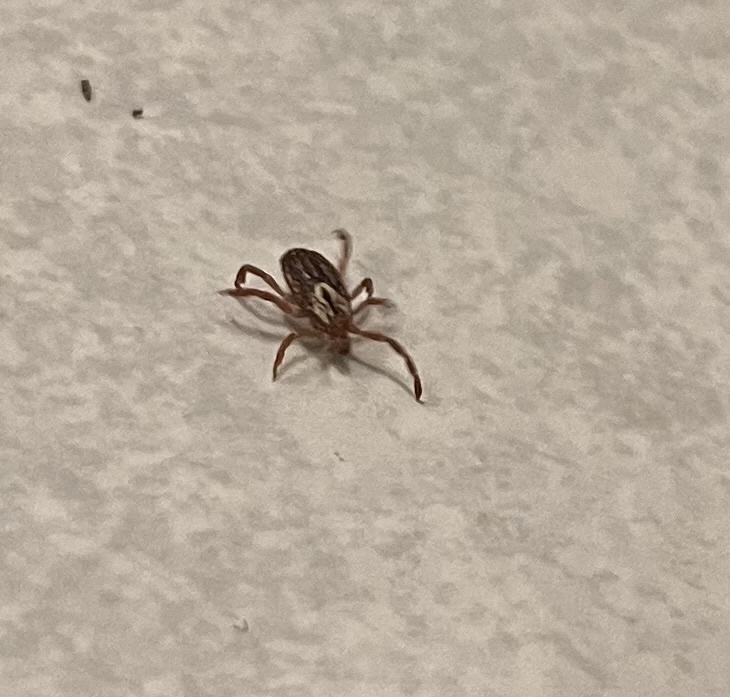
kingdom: Animalia
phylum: Arthropoda
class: Arachnida
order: Ixodida
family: Ixodidae
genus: Amblyomma
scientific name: Amblyomma maculatum
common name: Gulf coast tick
